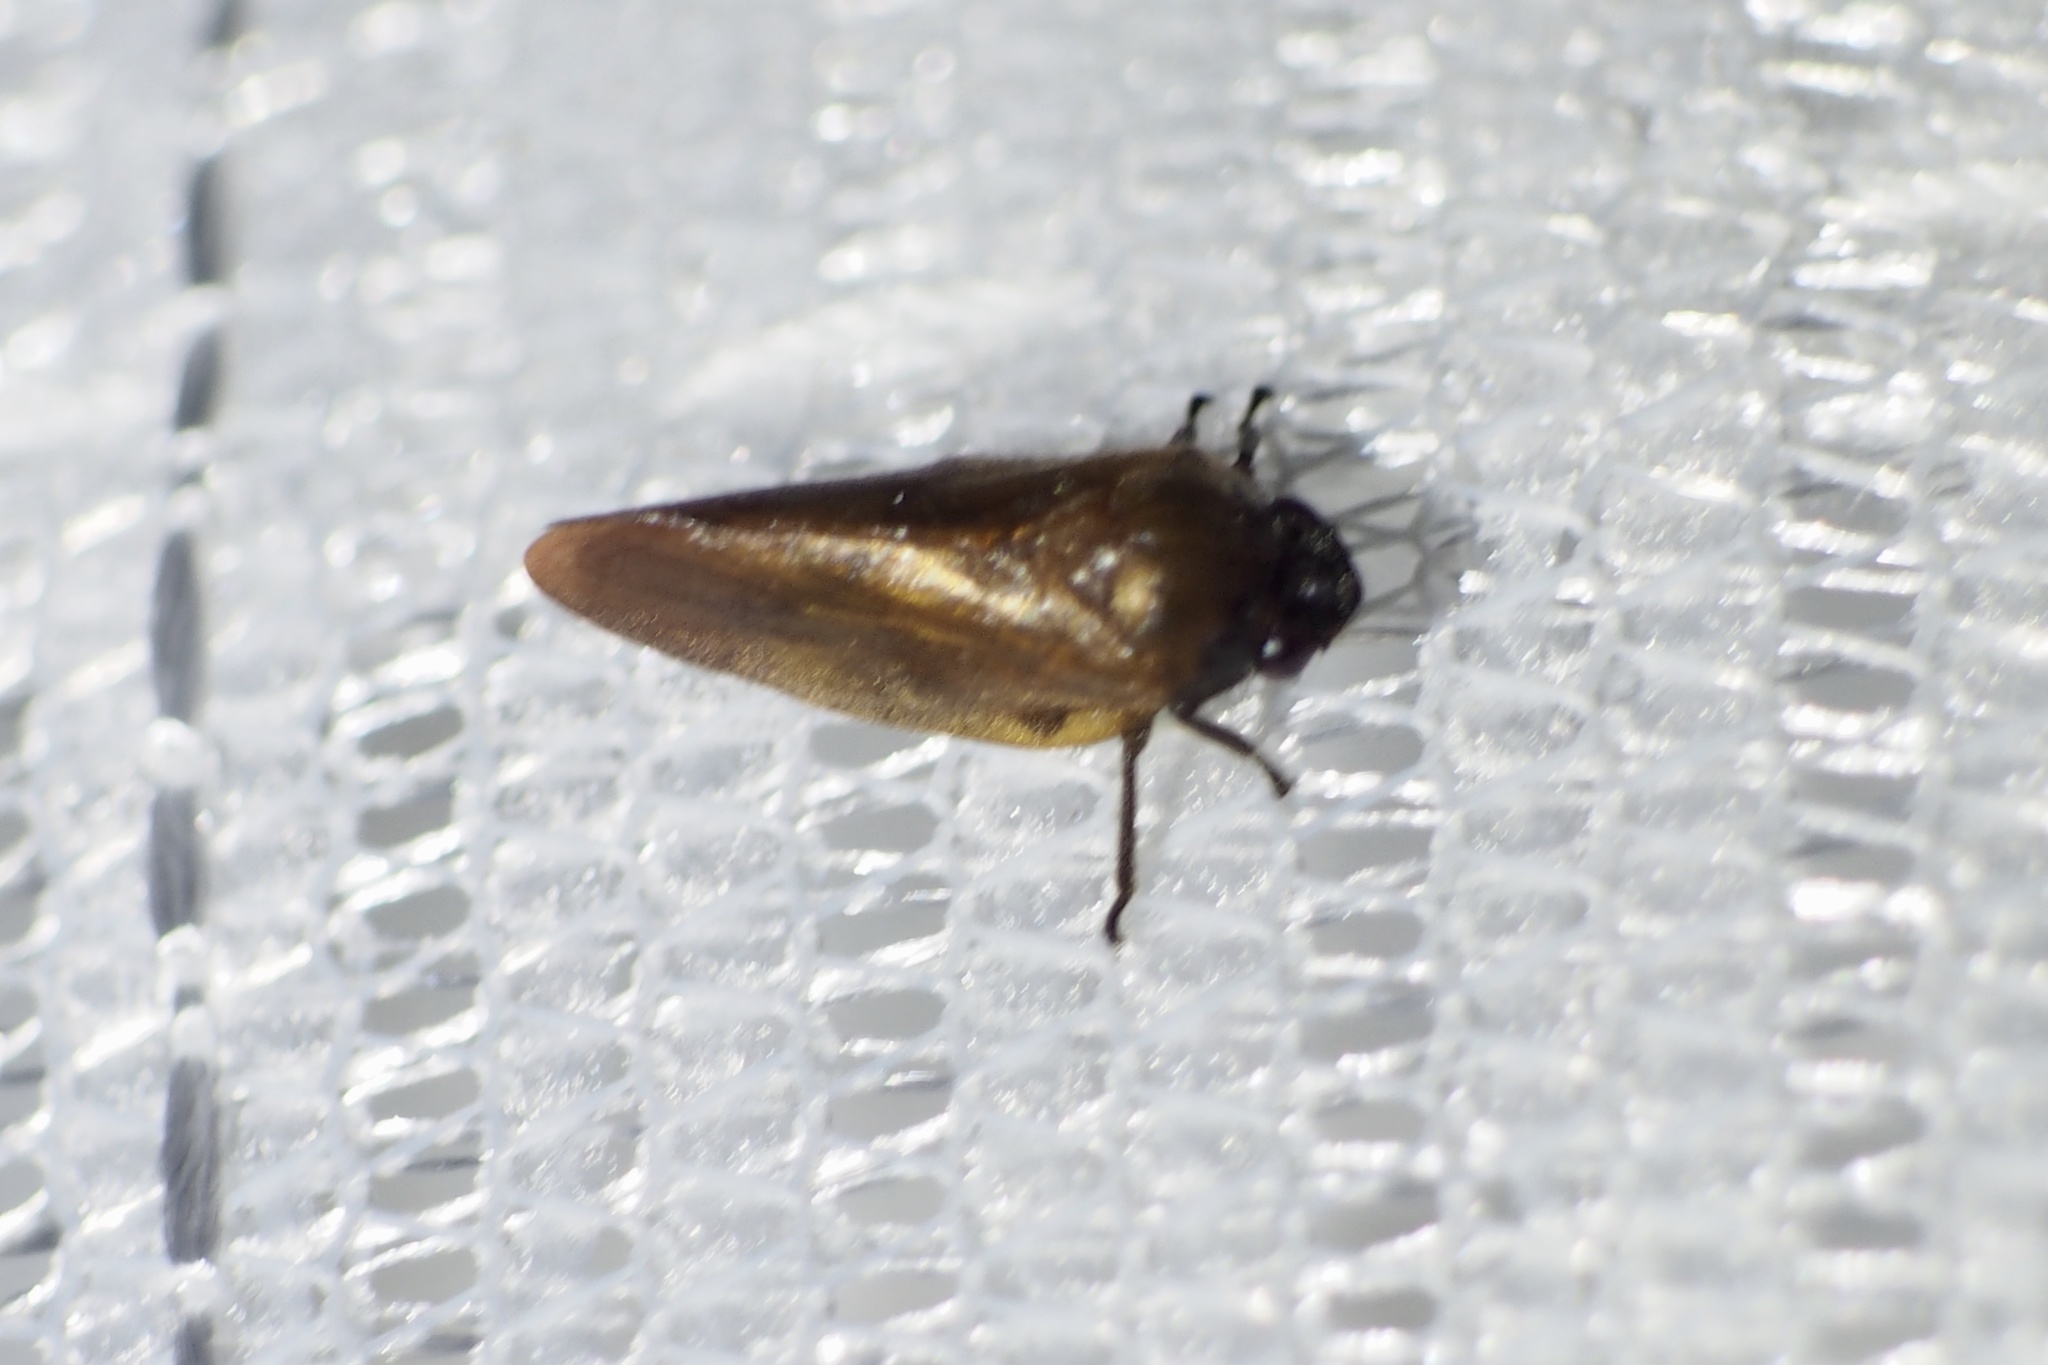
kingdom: Animalia
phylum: Arthropoda
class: Insecta
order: Hemiptera
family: Cercopidae
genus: Eoscarta
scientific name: Eoscarta assimilis
